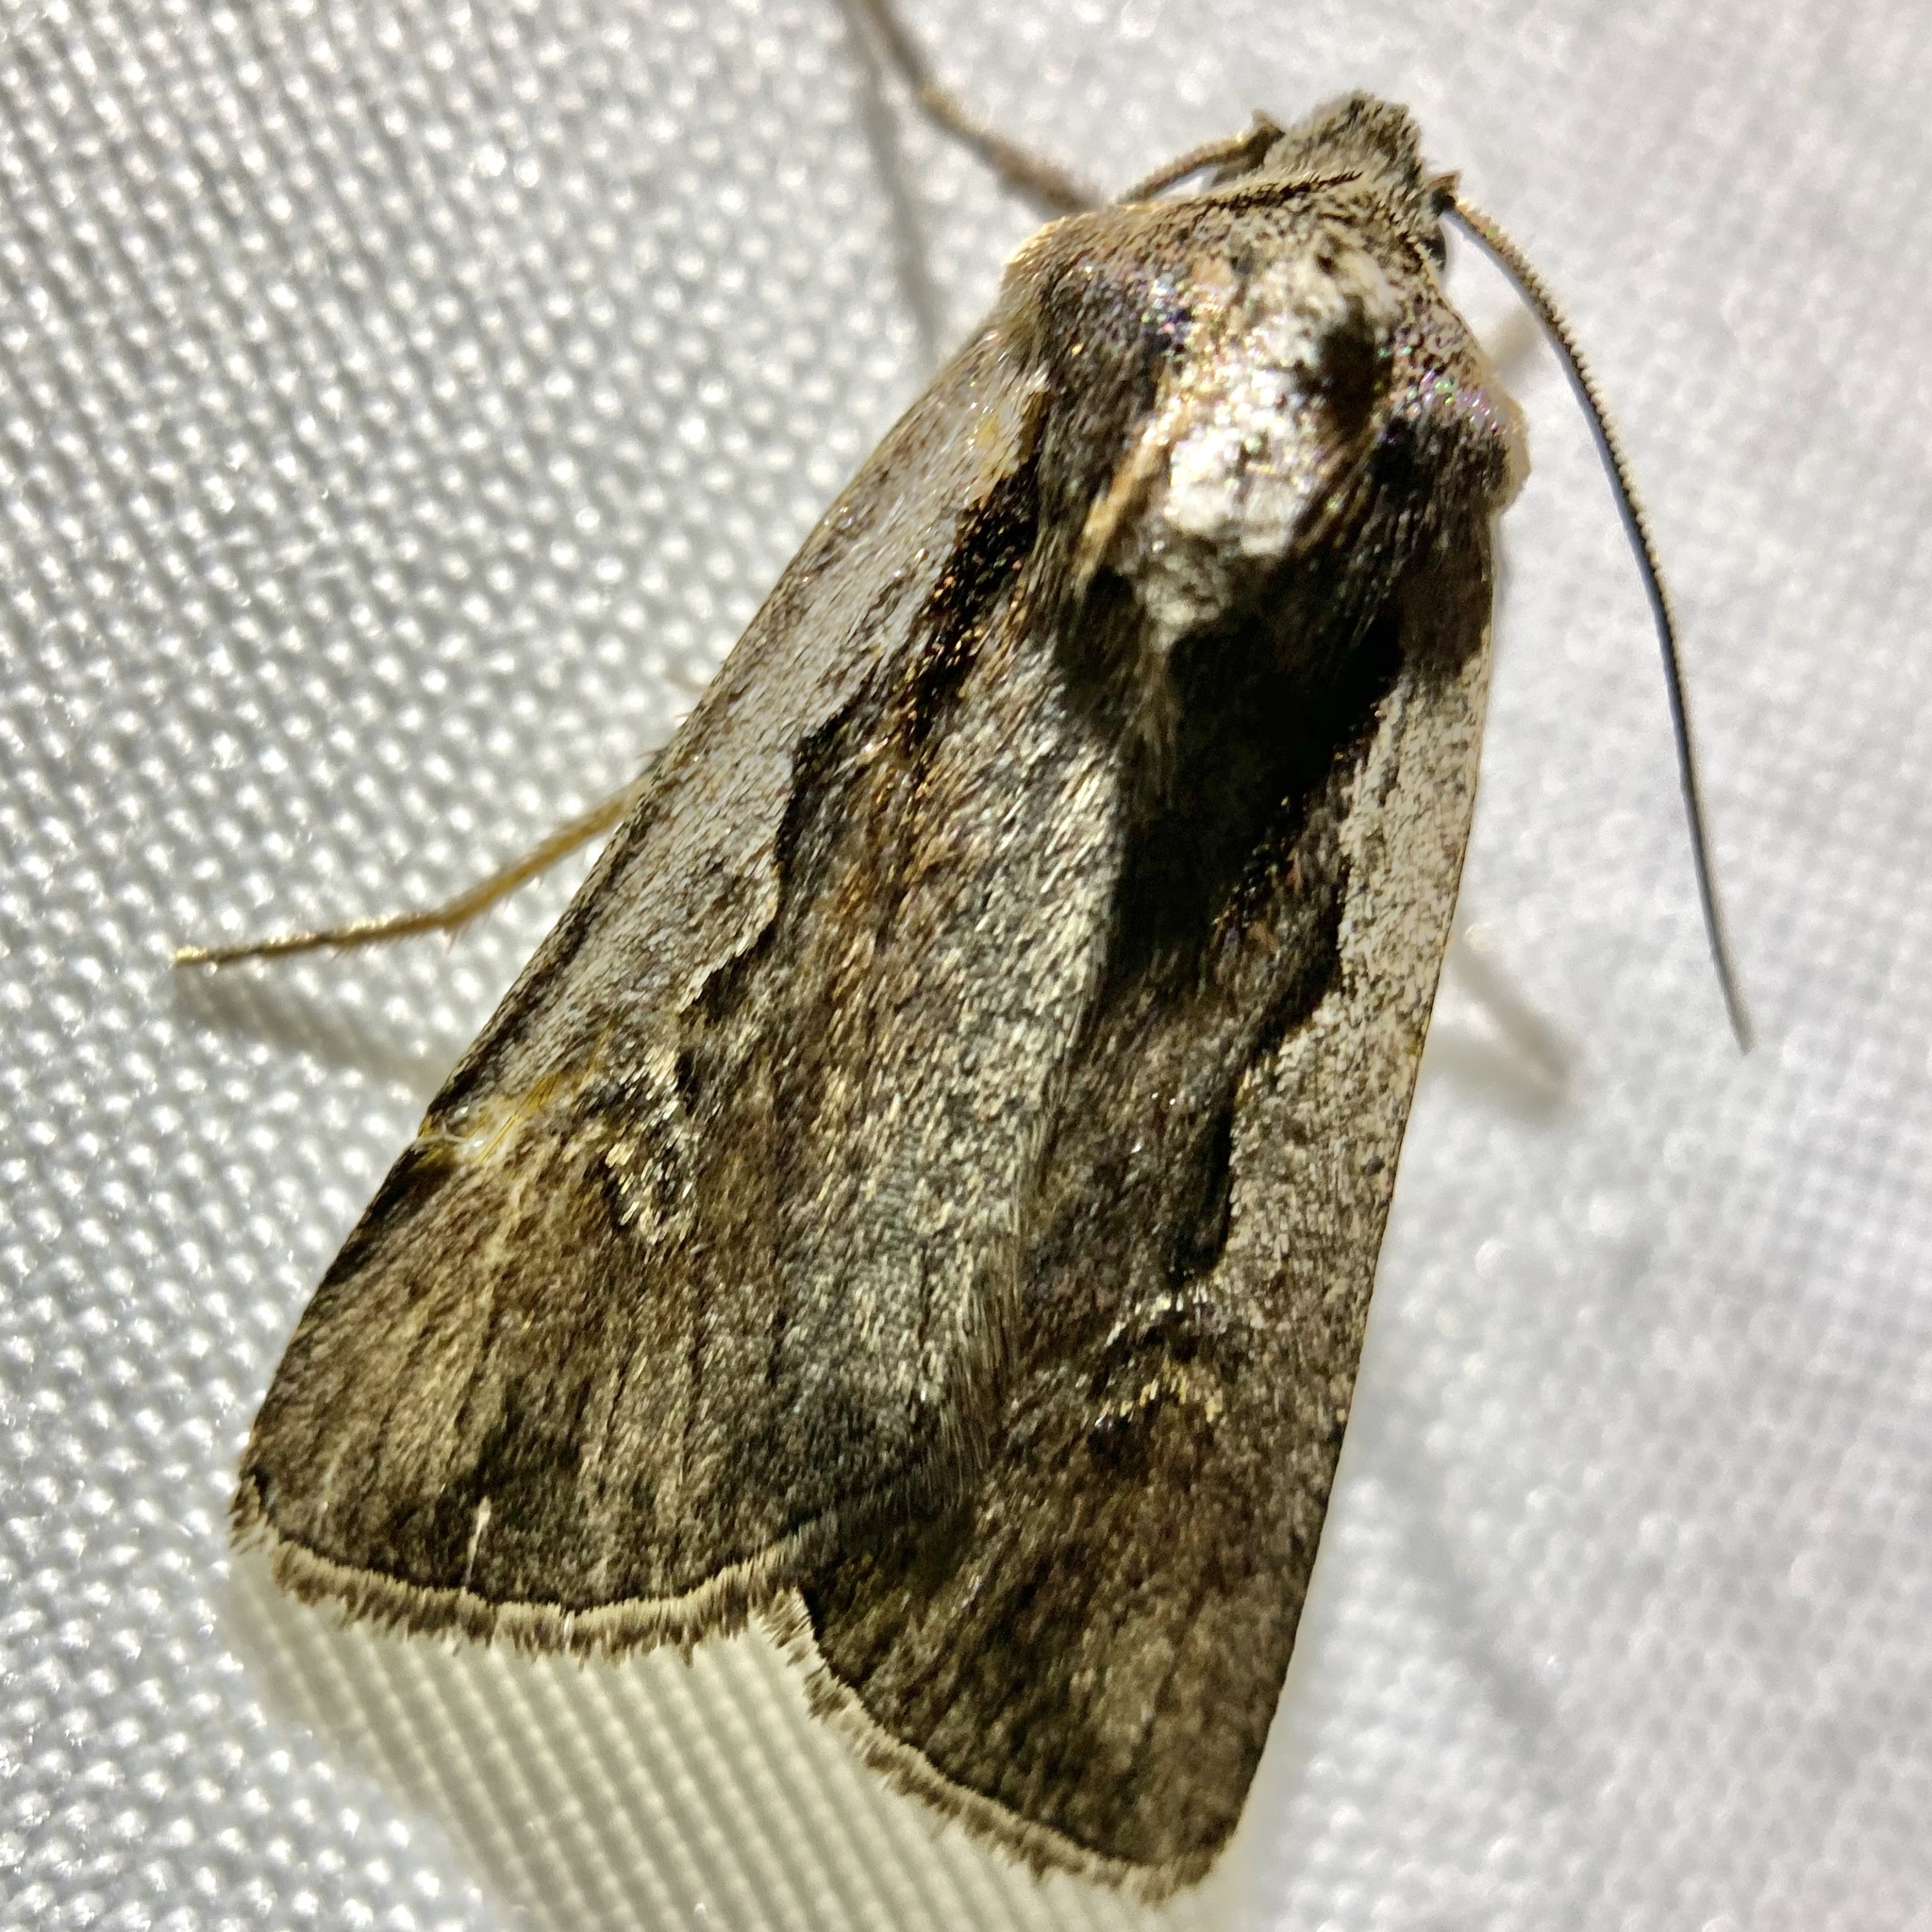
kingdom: Animalia
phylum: Arthropoda
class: Insecta
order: Lepidoptera
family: Noctuidae
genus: Euxoa
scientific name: Euxoa hollemani
